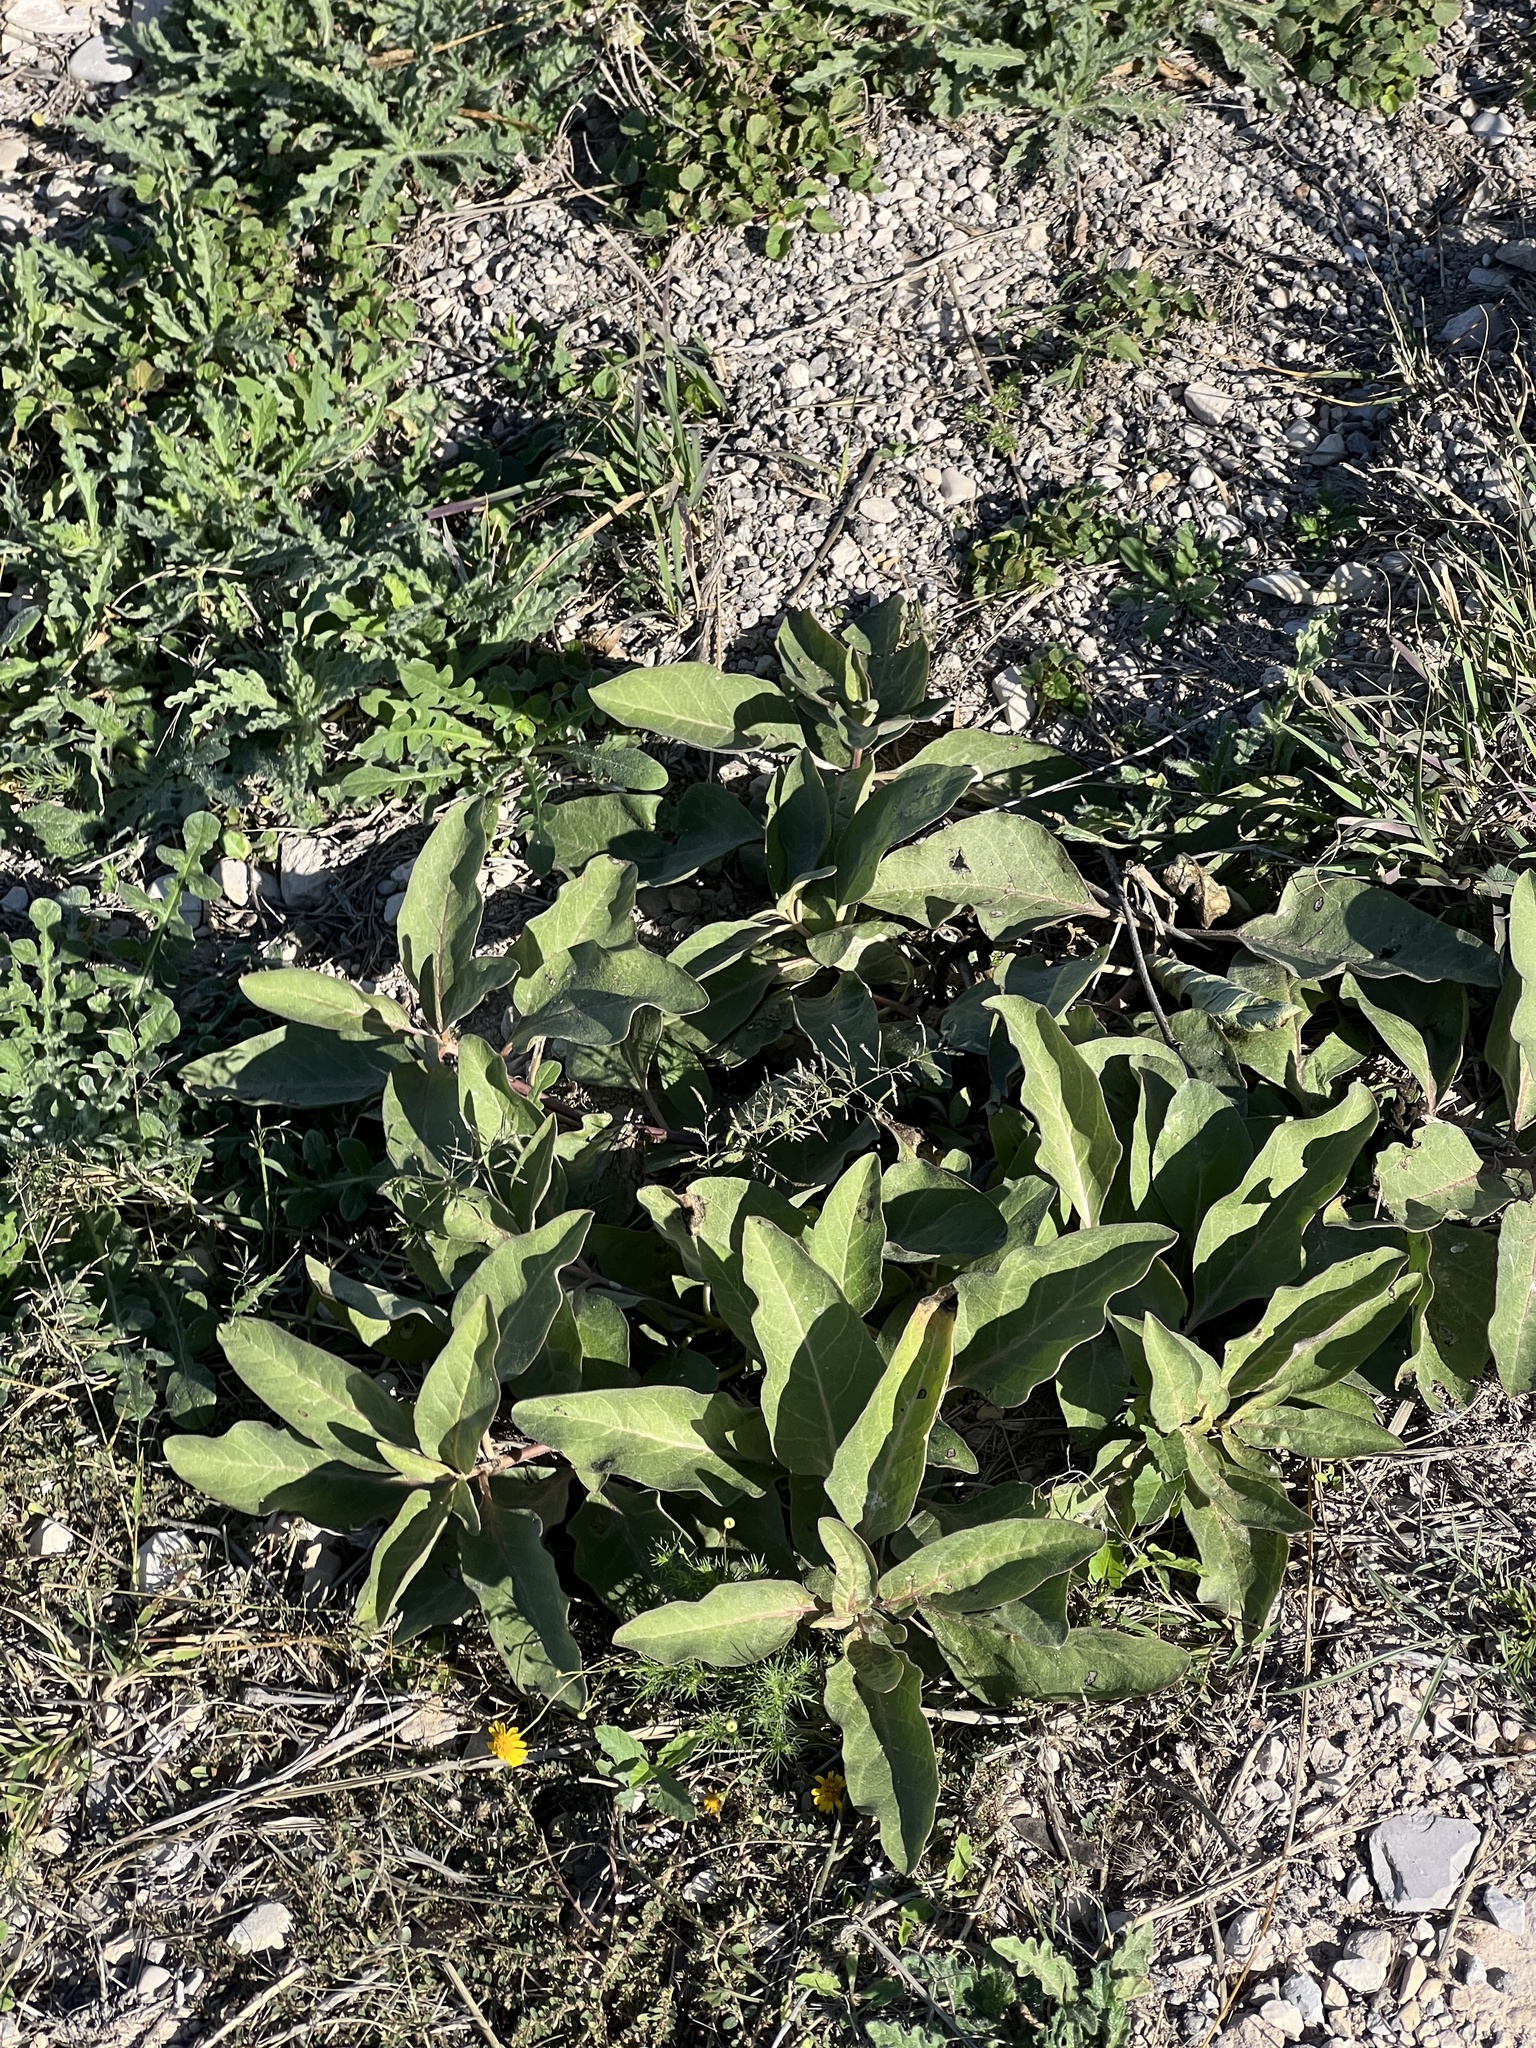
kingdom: Plantae
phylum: Tracheophyta
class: Magnoliopsida
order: Gentianales
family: Apocynaceae
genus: Asclepias
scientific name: Asclepias oenotheroides
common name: Zizotes milkweed
